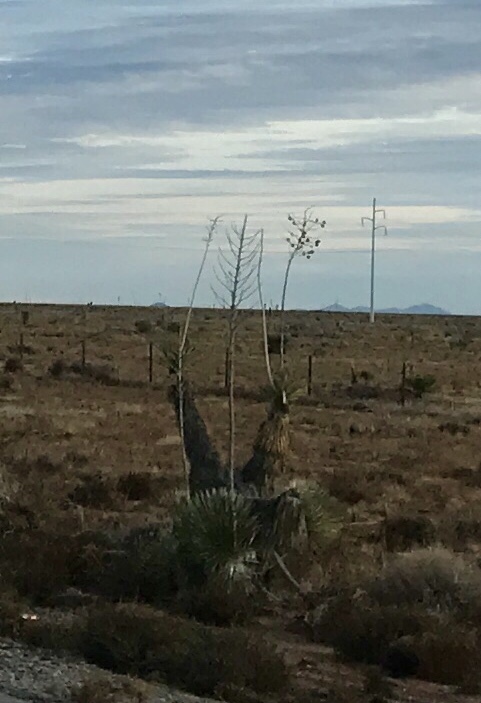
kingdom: Plantae
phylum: Tracheophyta
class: Liliopsida
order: Asparagales
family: Asparagaceae
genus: Yucca
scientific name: Yucca elata
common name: Palmella
